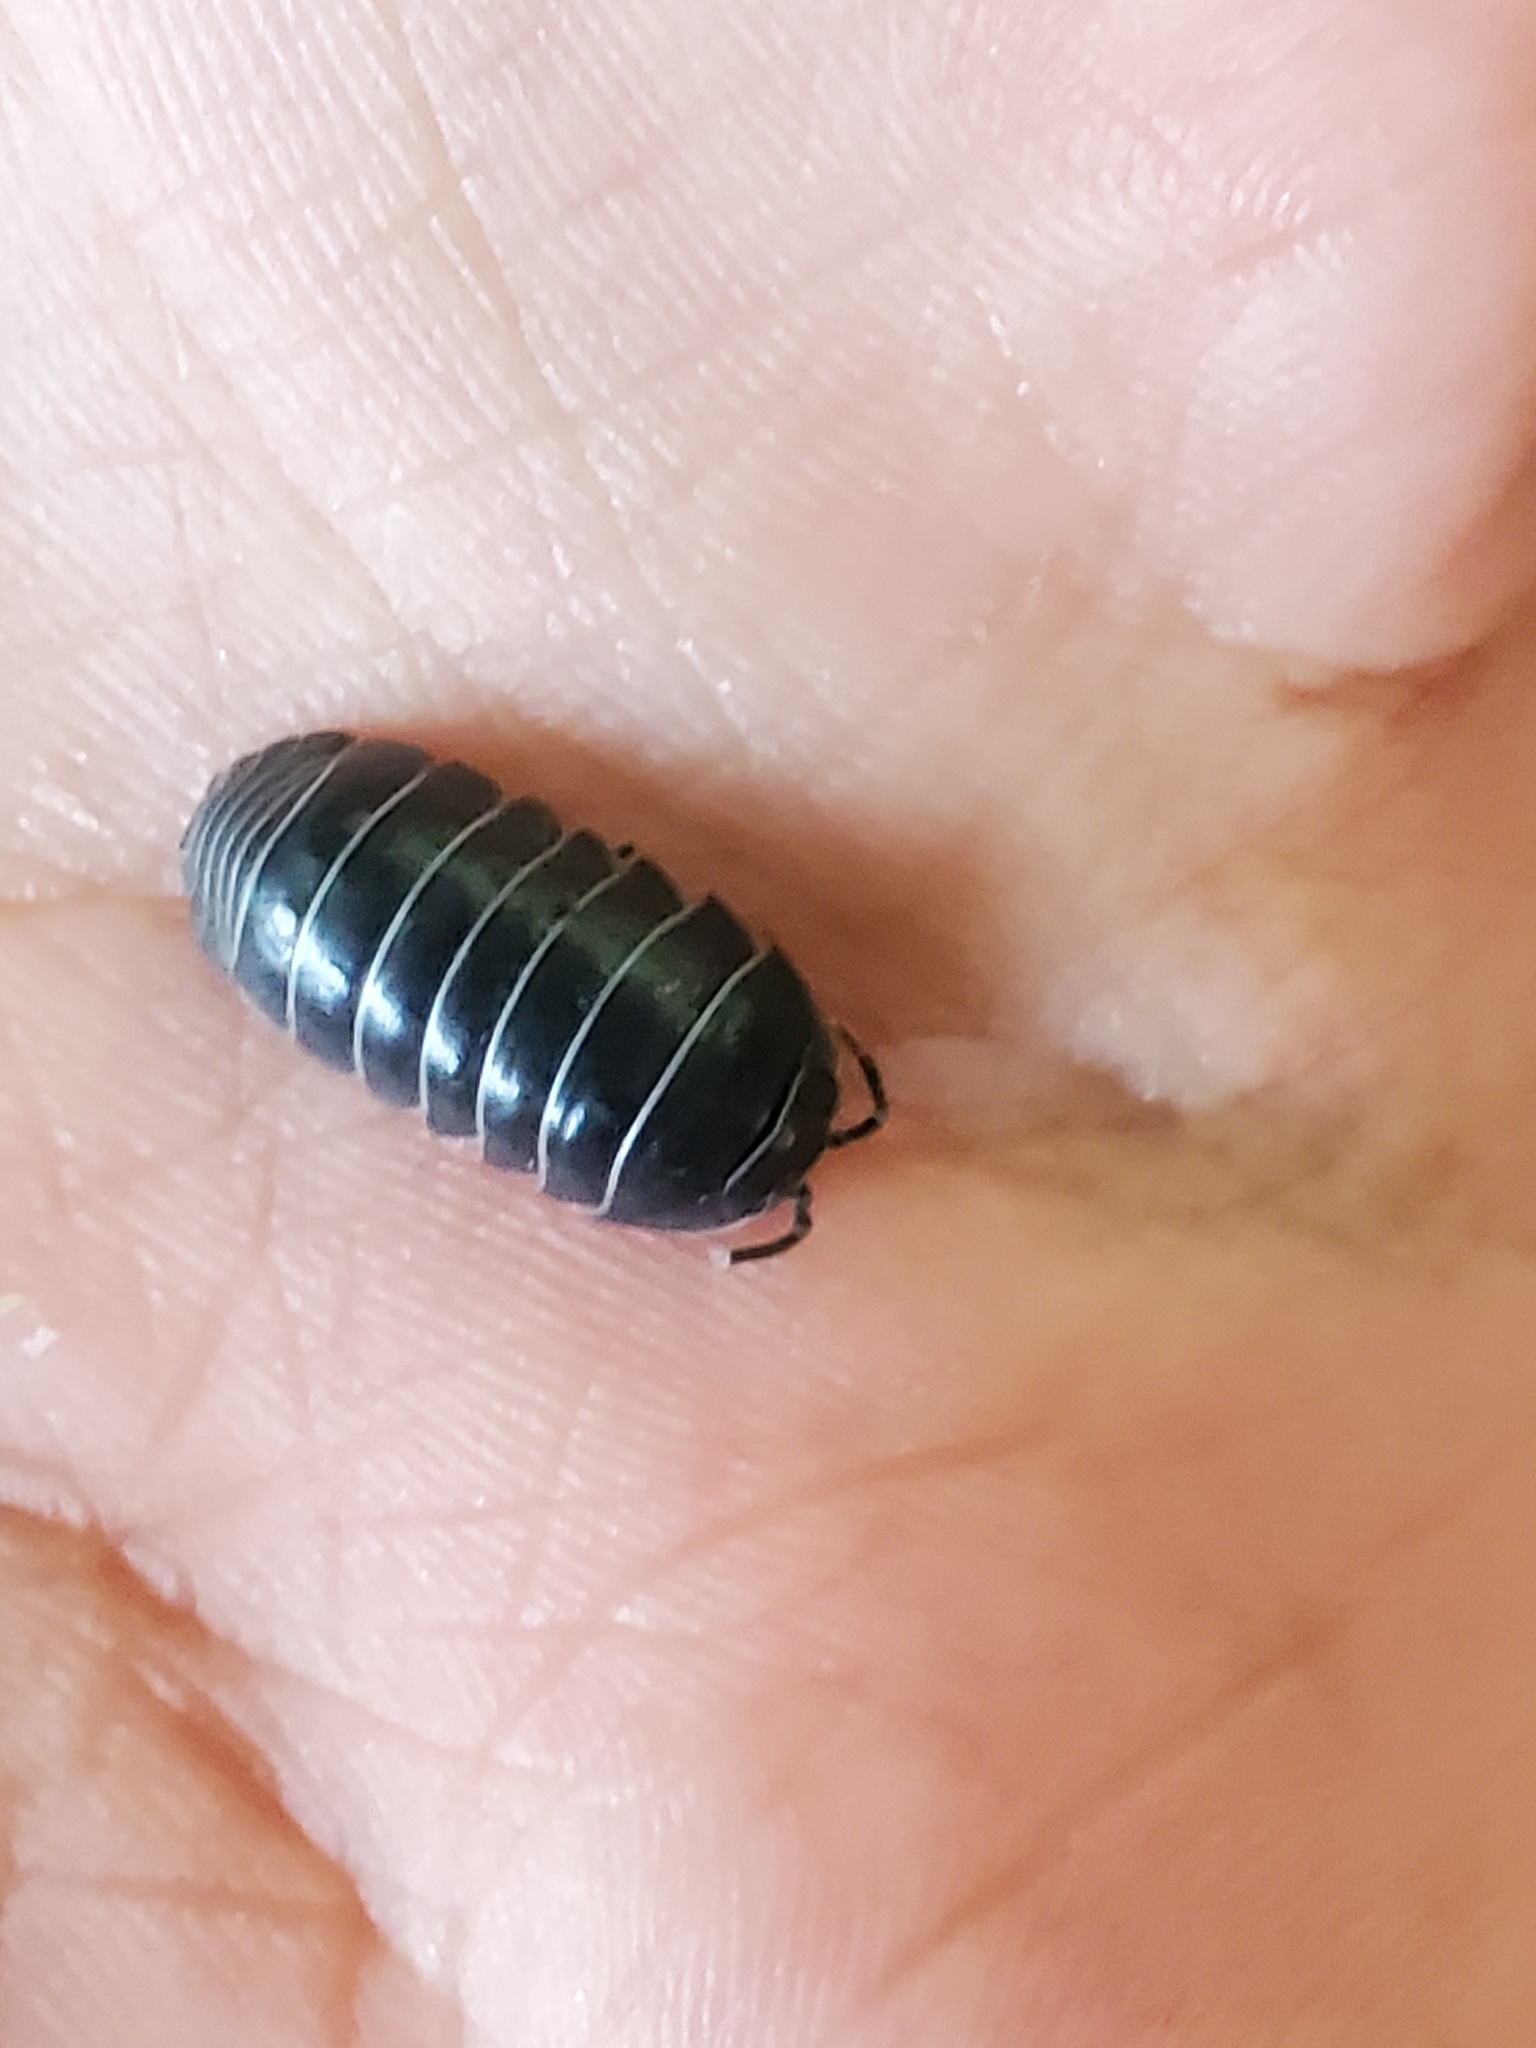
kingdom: Animalia
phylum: Arthropoda
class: Malacostraca
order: Isopoda
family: Armadillidiidae
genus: Armadillidium
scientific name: Armadillidium vulgare
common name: Common pill woodlouse
